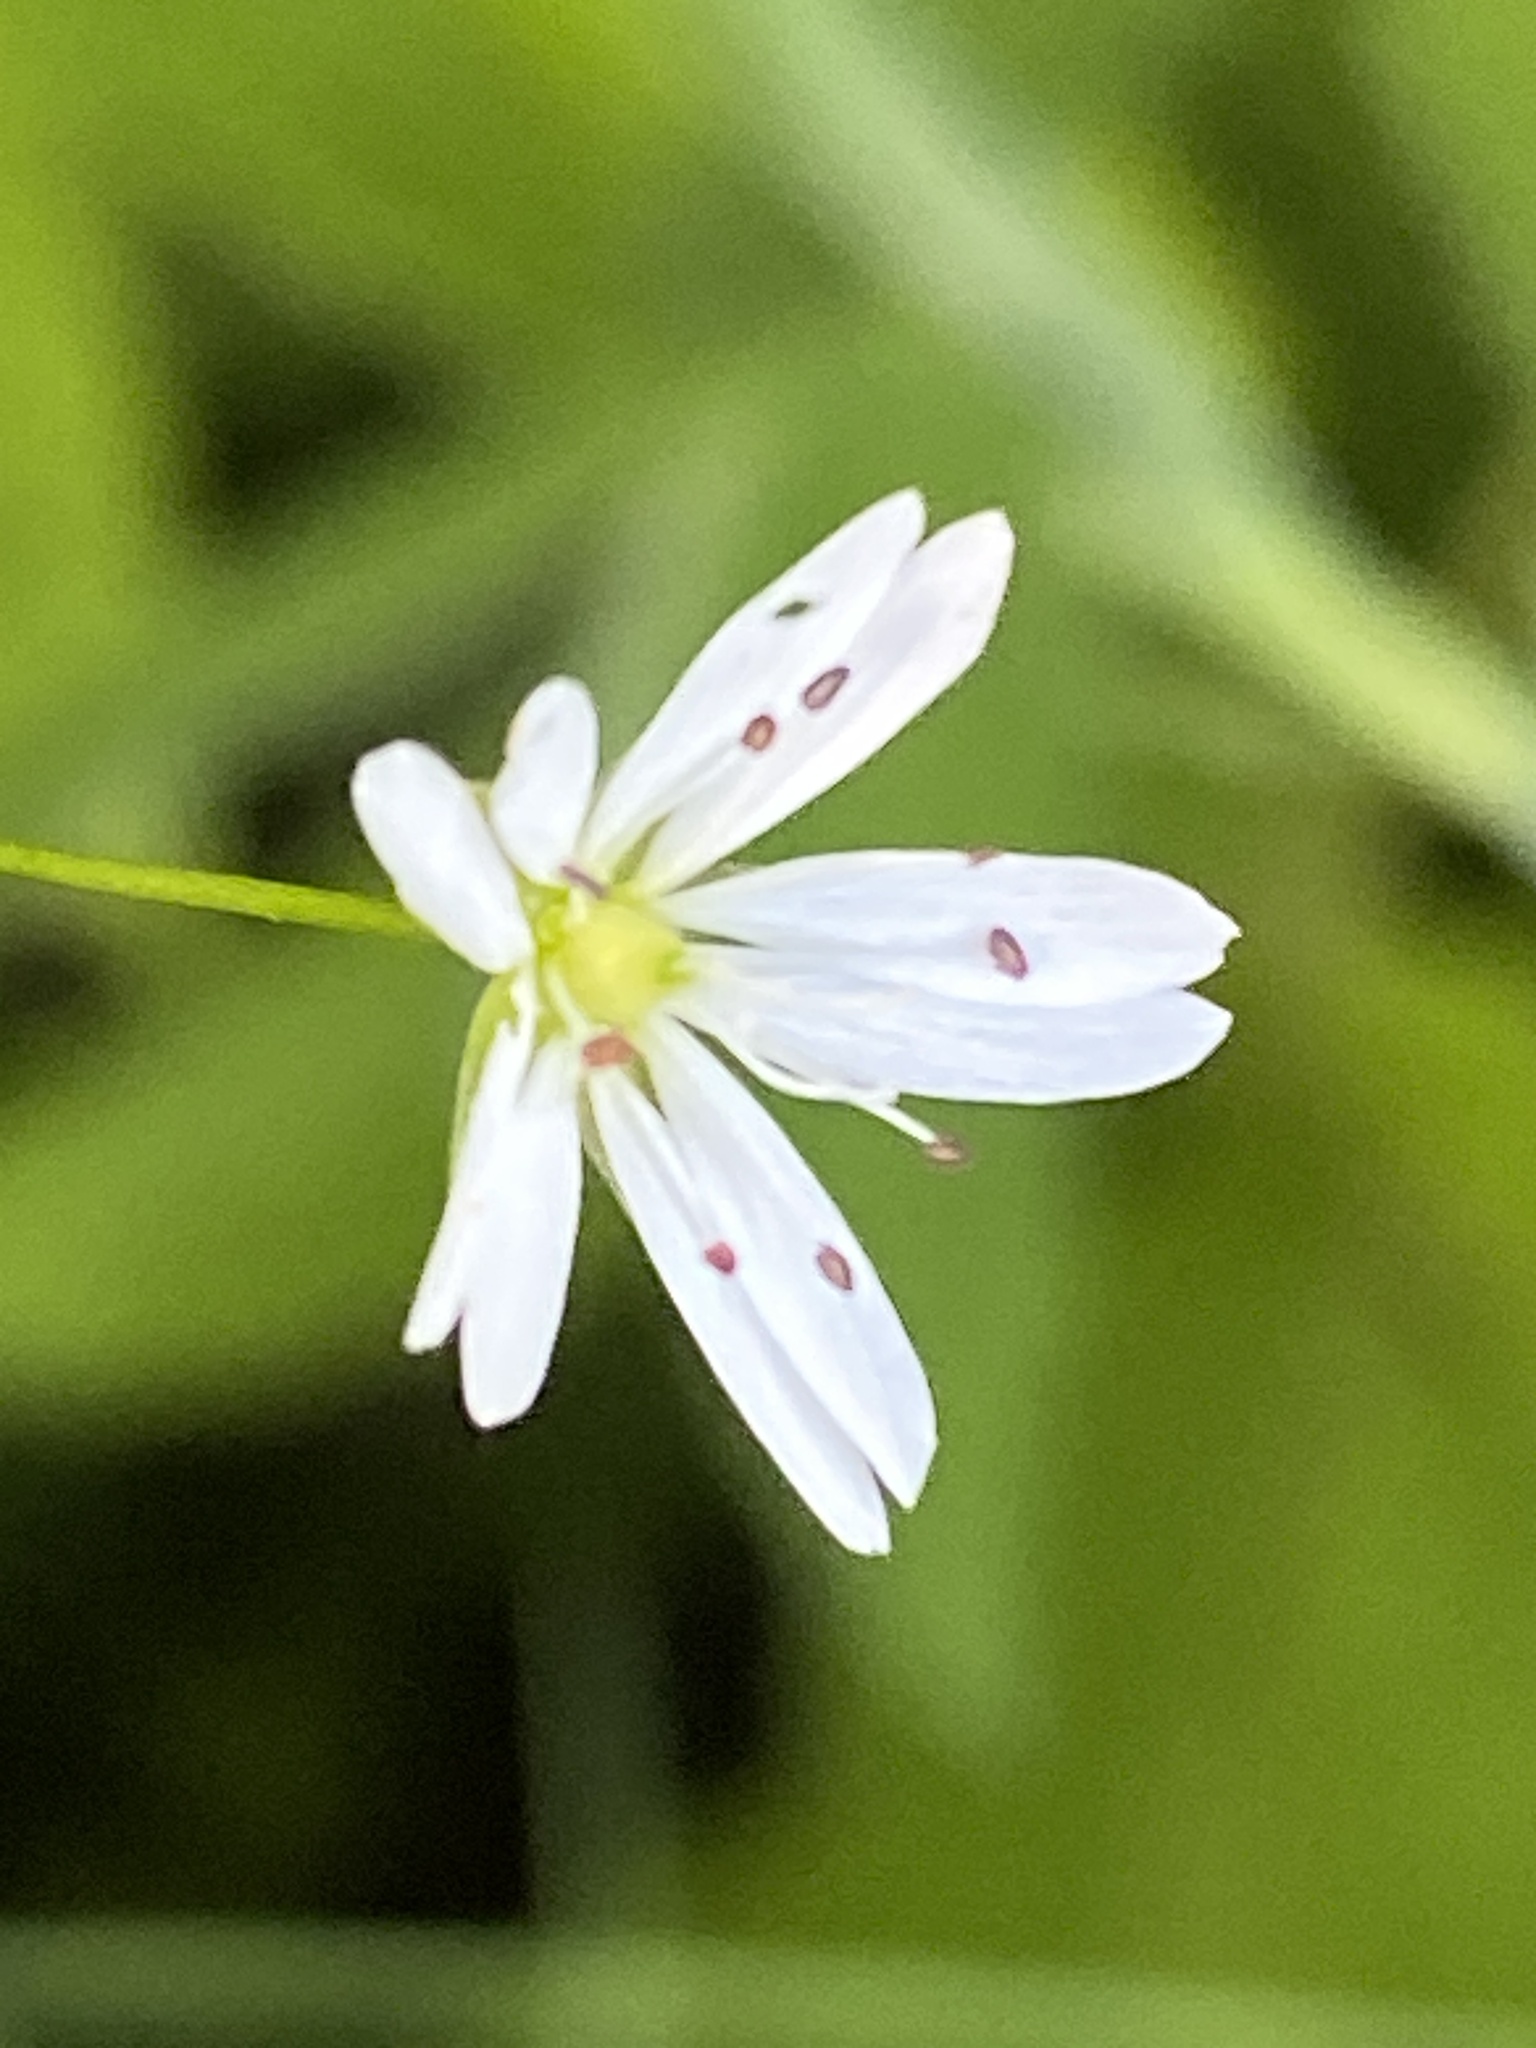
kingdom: Plantae
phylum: Tracheophyta
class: Magnoliopsida
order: Caryophyllales
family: Caryophyllaceae
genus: Stellaria
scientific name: Stellaria graminea
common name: Grass-like starwort
